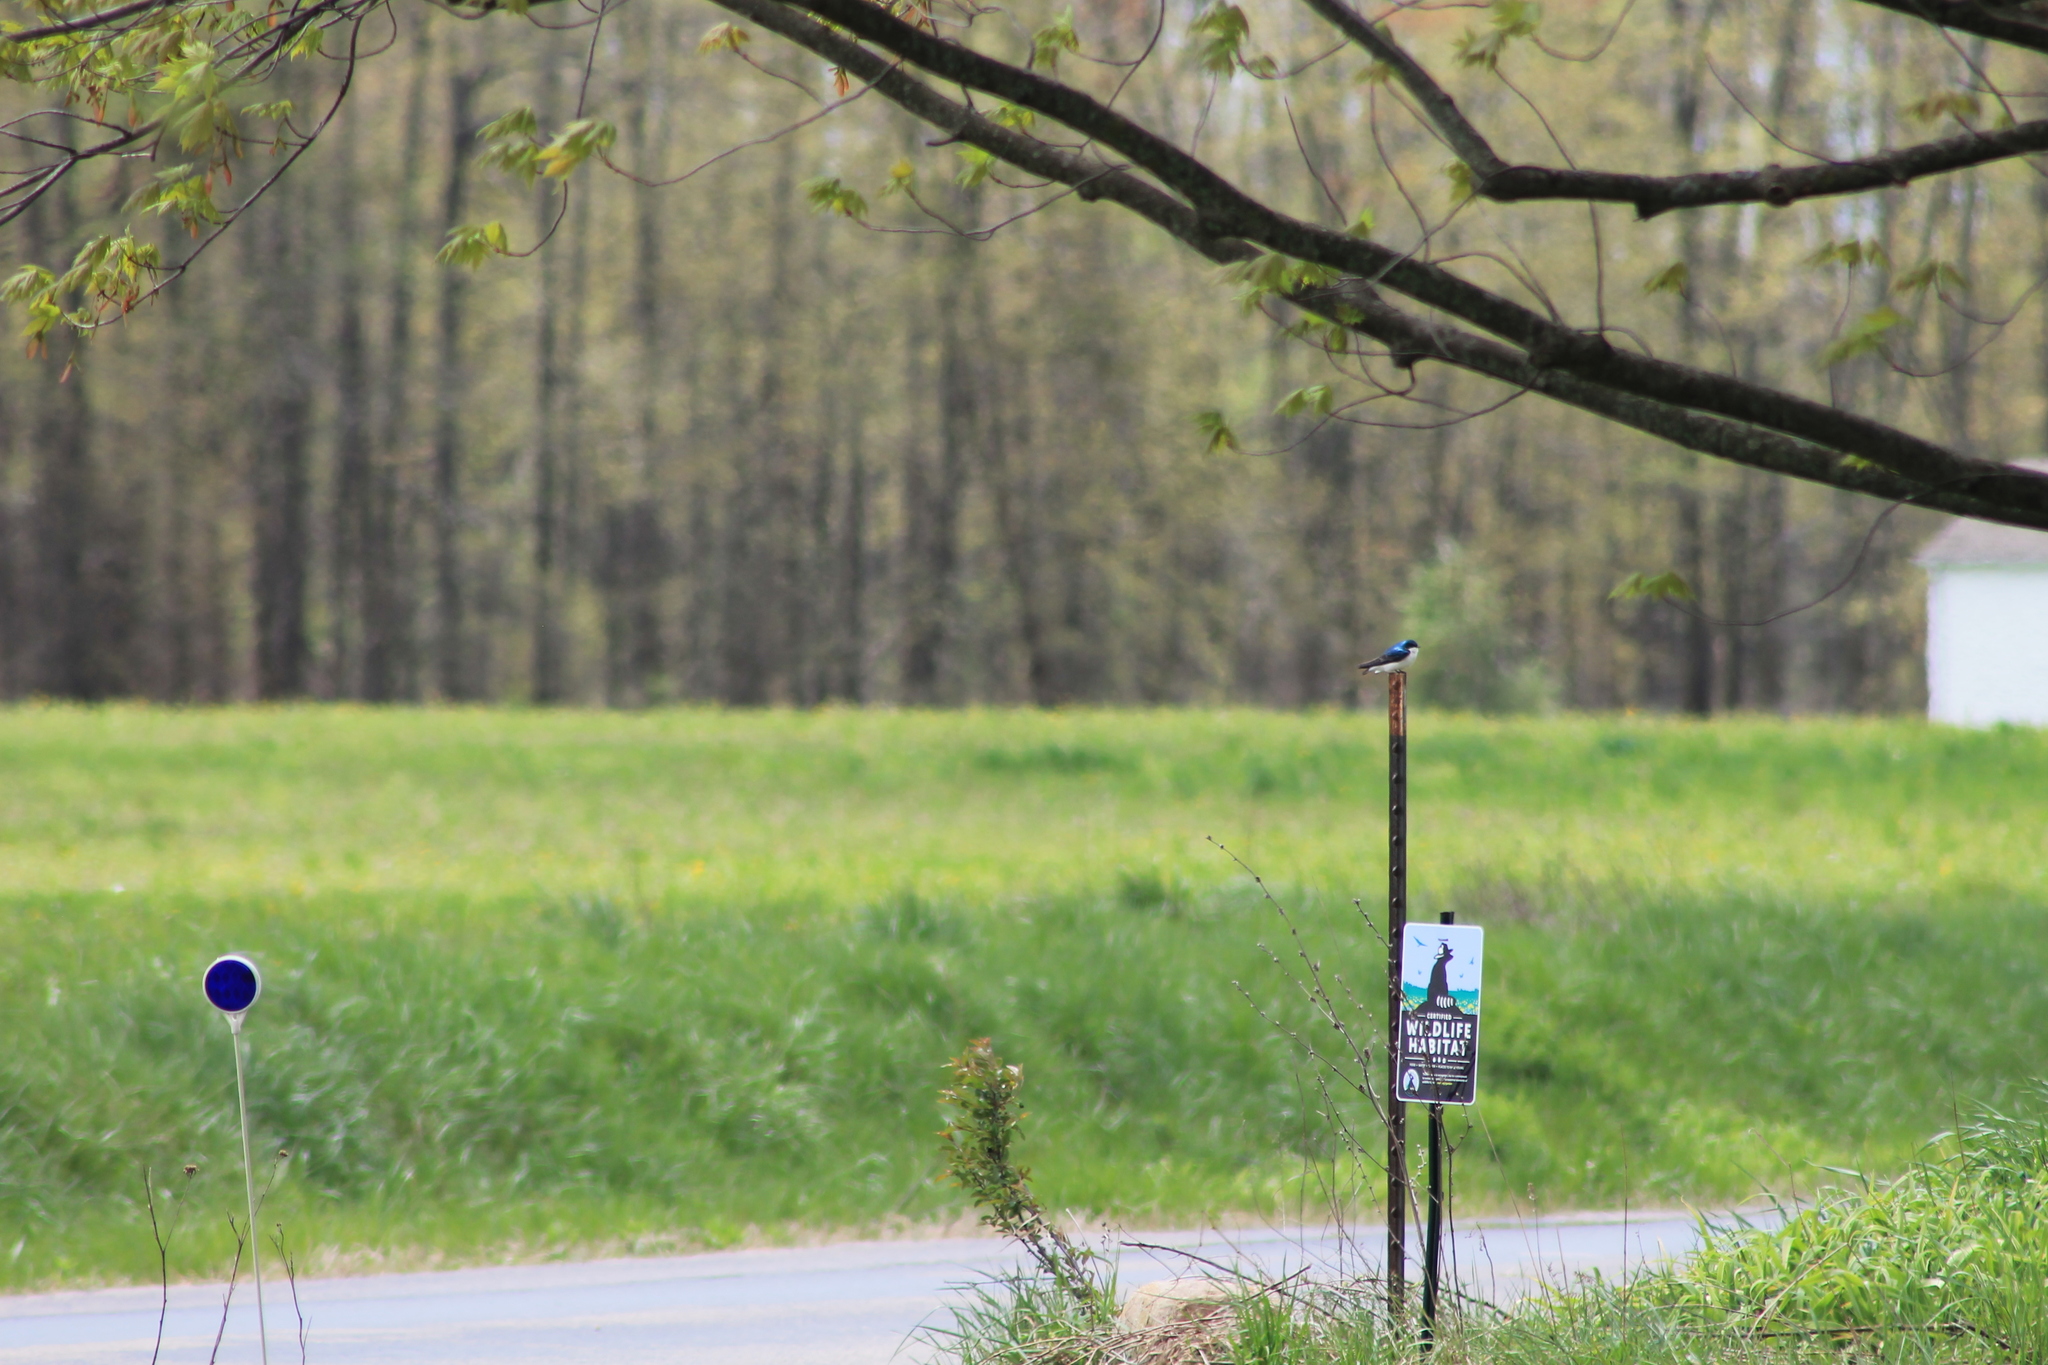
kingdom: Animalia
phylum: Chordata
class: Aves
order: Passeriformes
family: Hirundinidae
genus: Tachycineta
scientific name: Tachycineta bicolor
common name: Tree swallow
